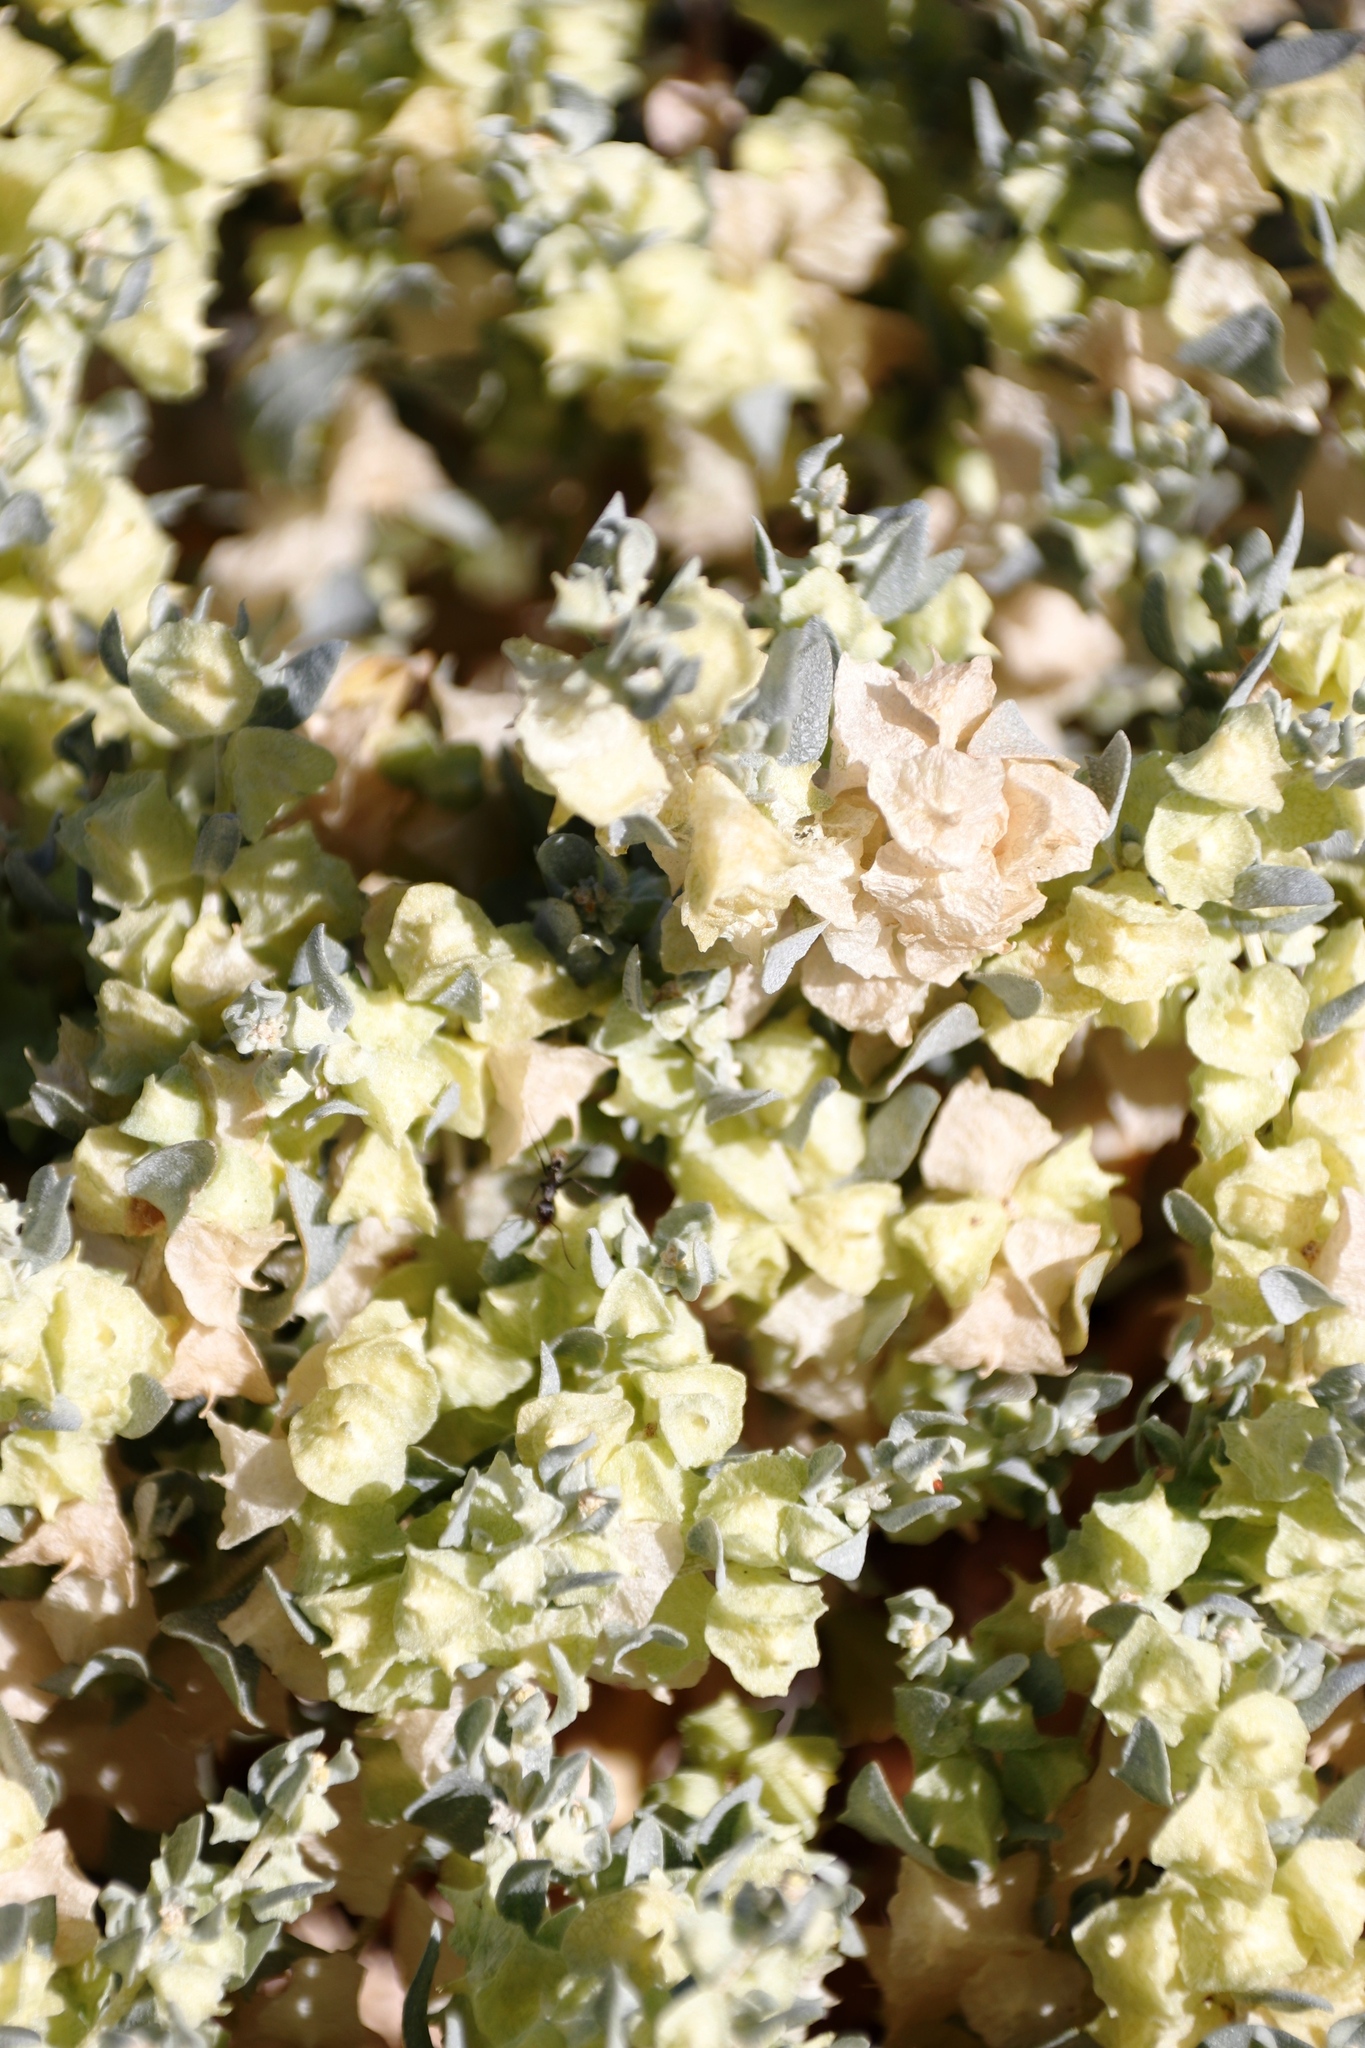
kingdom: Plantae
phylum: Tracheophyta
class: Magnoliopsida
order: Caryophyllales
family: Amaranthaceae
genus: Atriplex
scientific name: Atriplex lindleyi
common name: Lindley's saltbush
